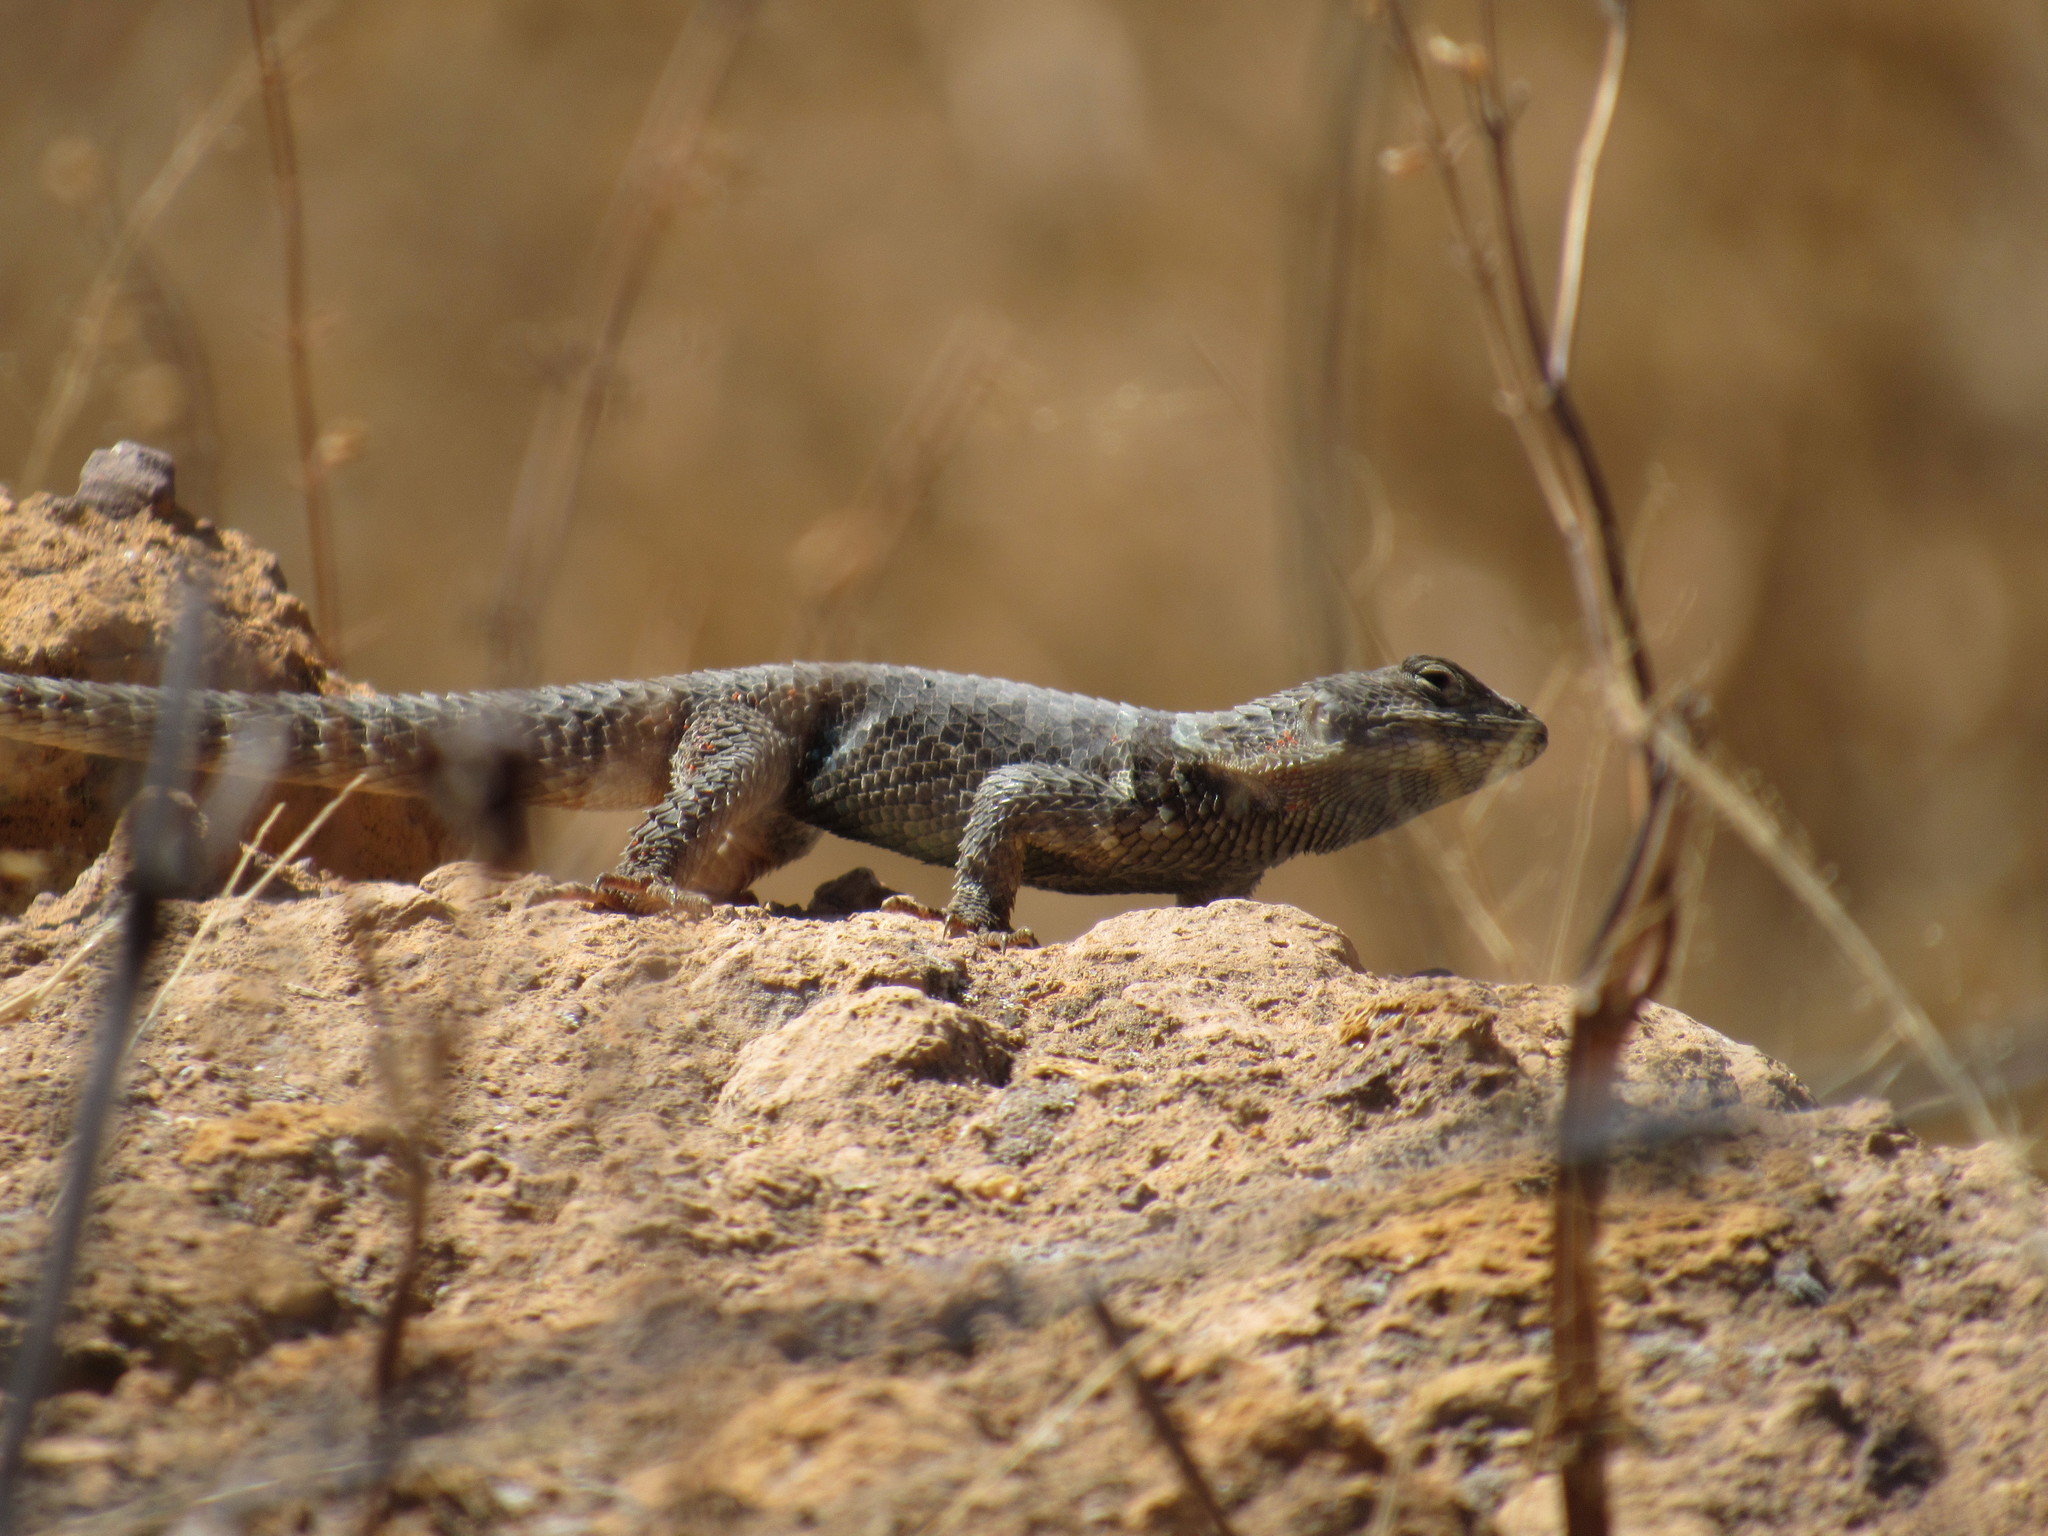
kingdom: Animalia
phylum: Chordata
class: Squamata
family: Phrynosomatidae
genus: Sceloporus
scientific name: Sceloporus minor
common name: Minor lizard
